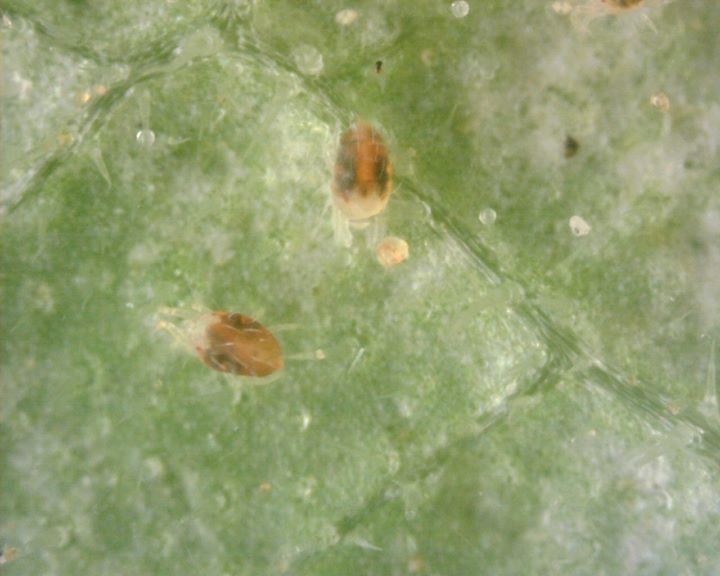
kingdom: Animalia
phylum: Arthropoda
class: Arachnida
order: Trombidiformes
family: Tetranychidae
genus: Tetranychus
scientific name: Tetranychus urticae
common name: Carmine spider mite
